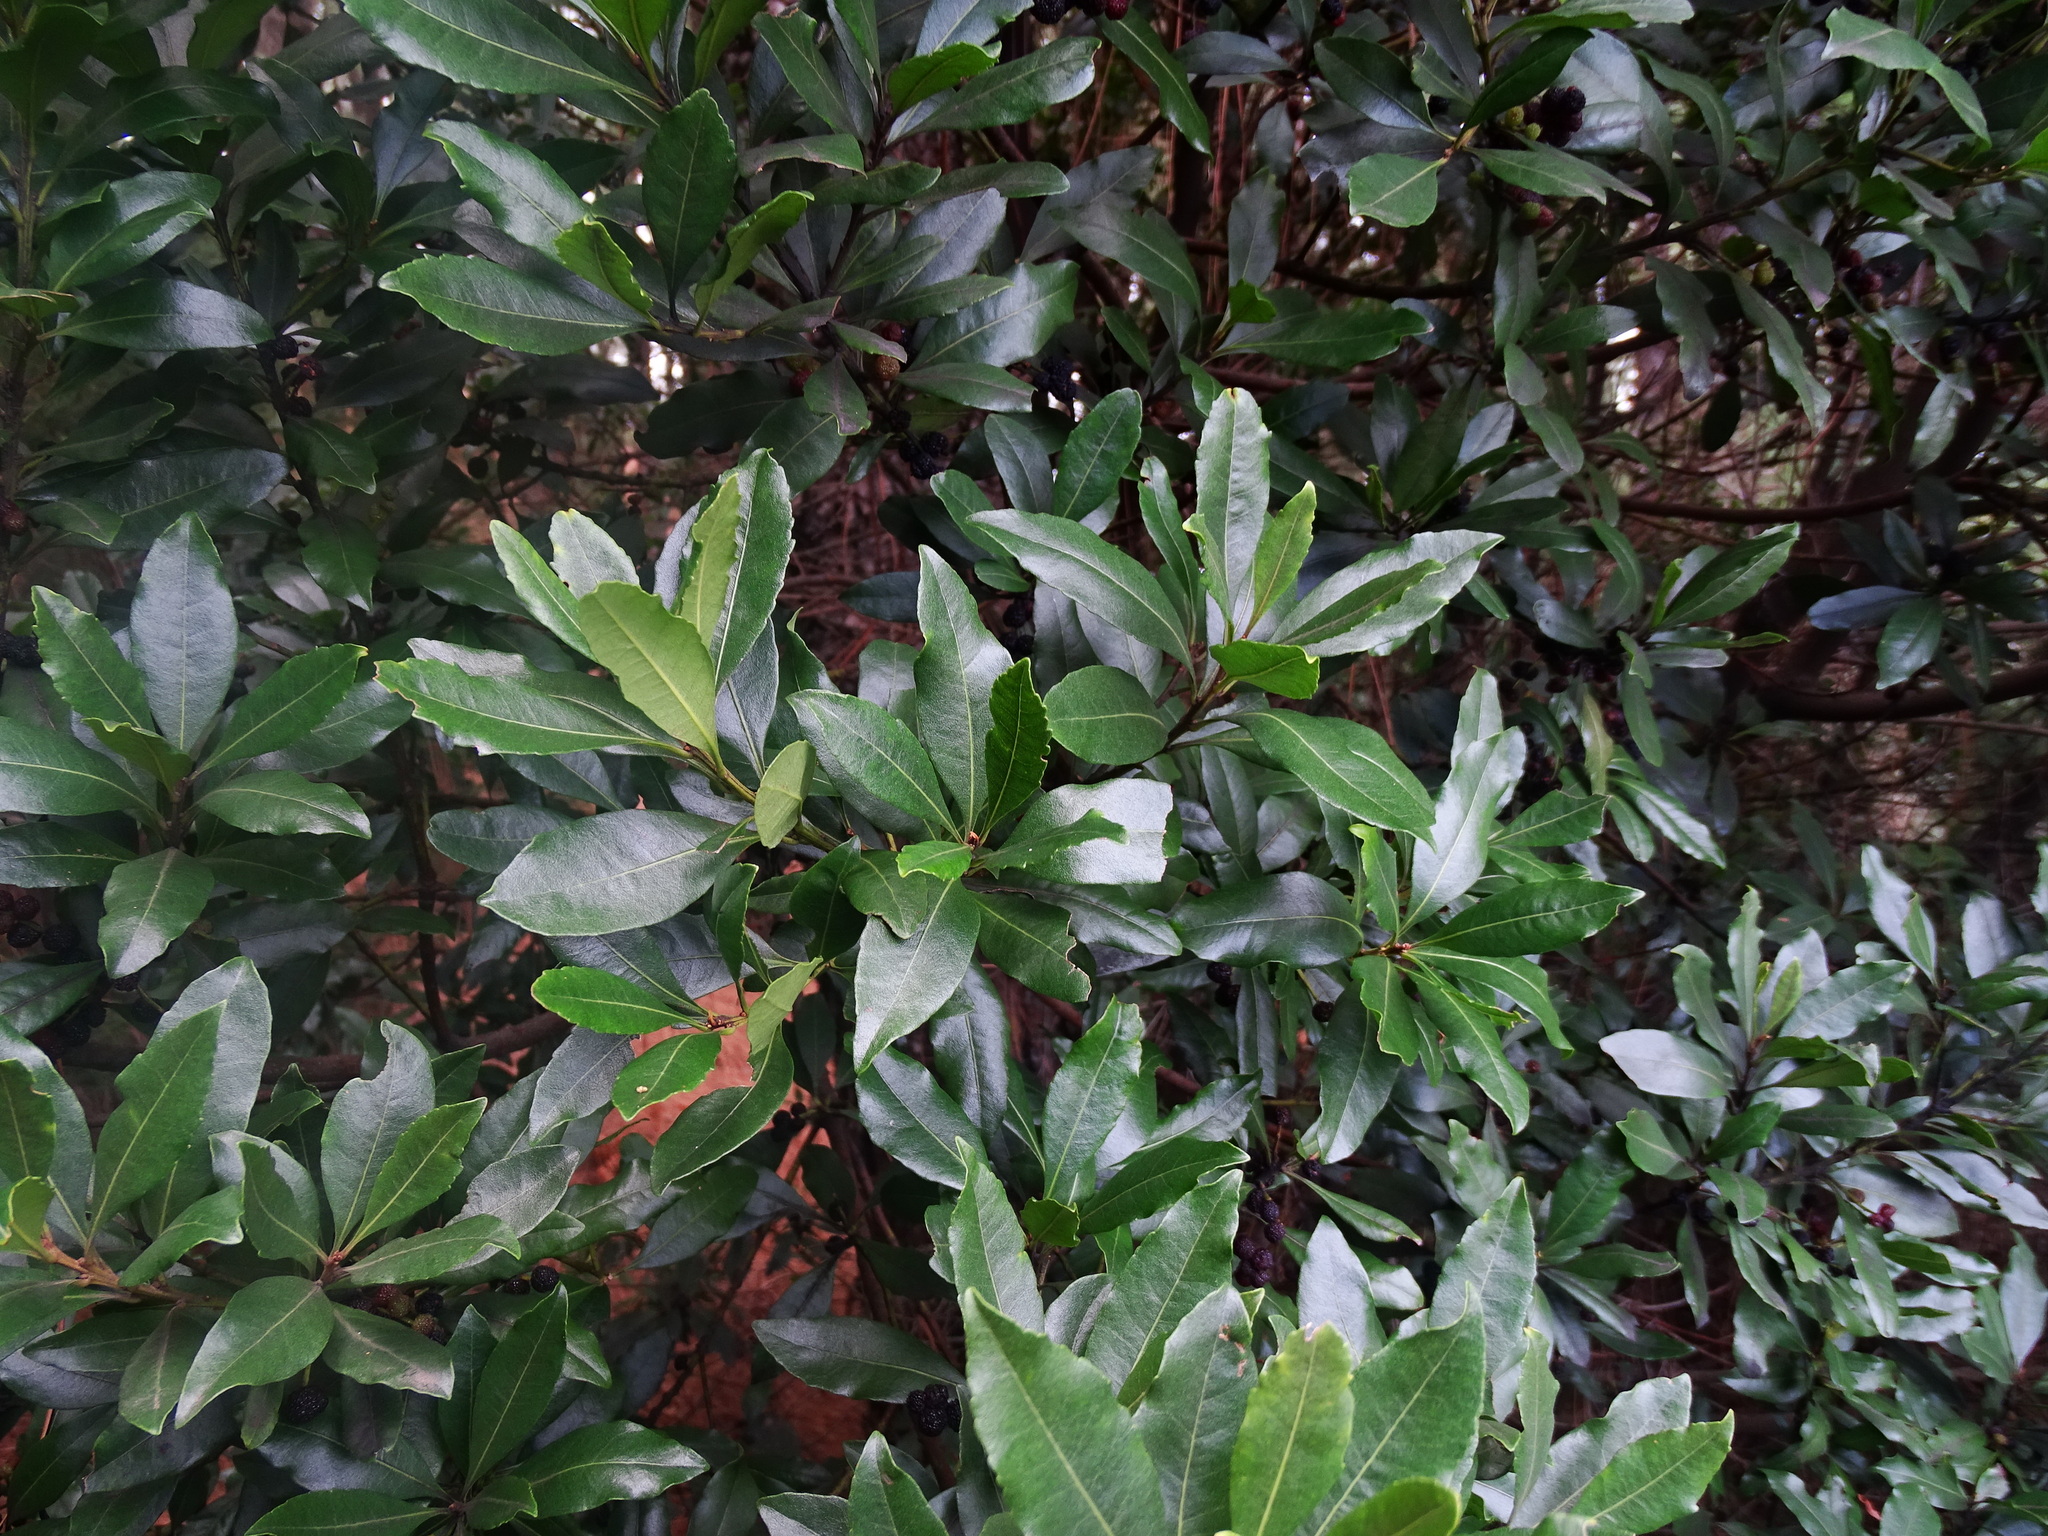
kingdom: Plantae
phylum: Tracheophyta
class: Magnoliopsida
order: Fagales
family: Myricaceae
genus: Morella
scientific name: Morella faya
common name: Firetree
